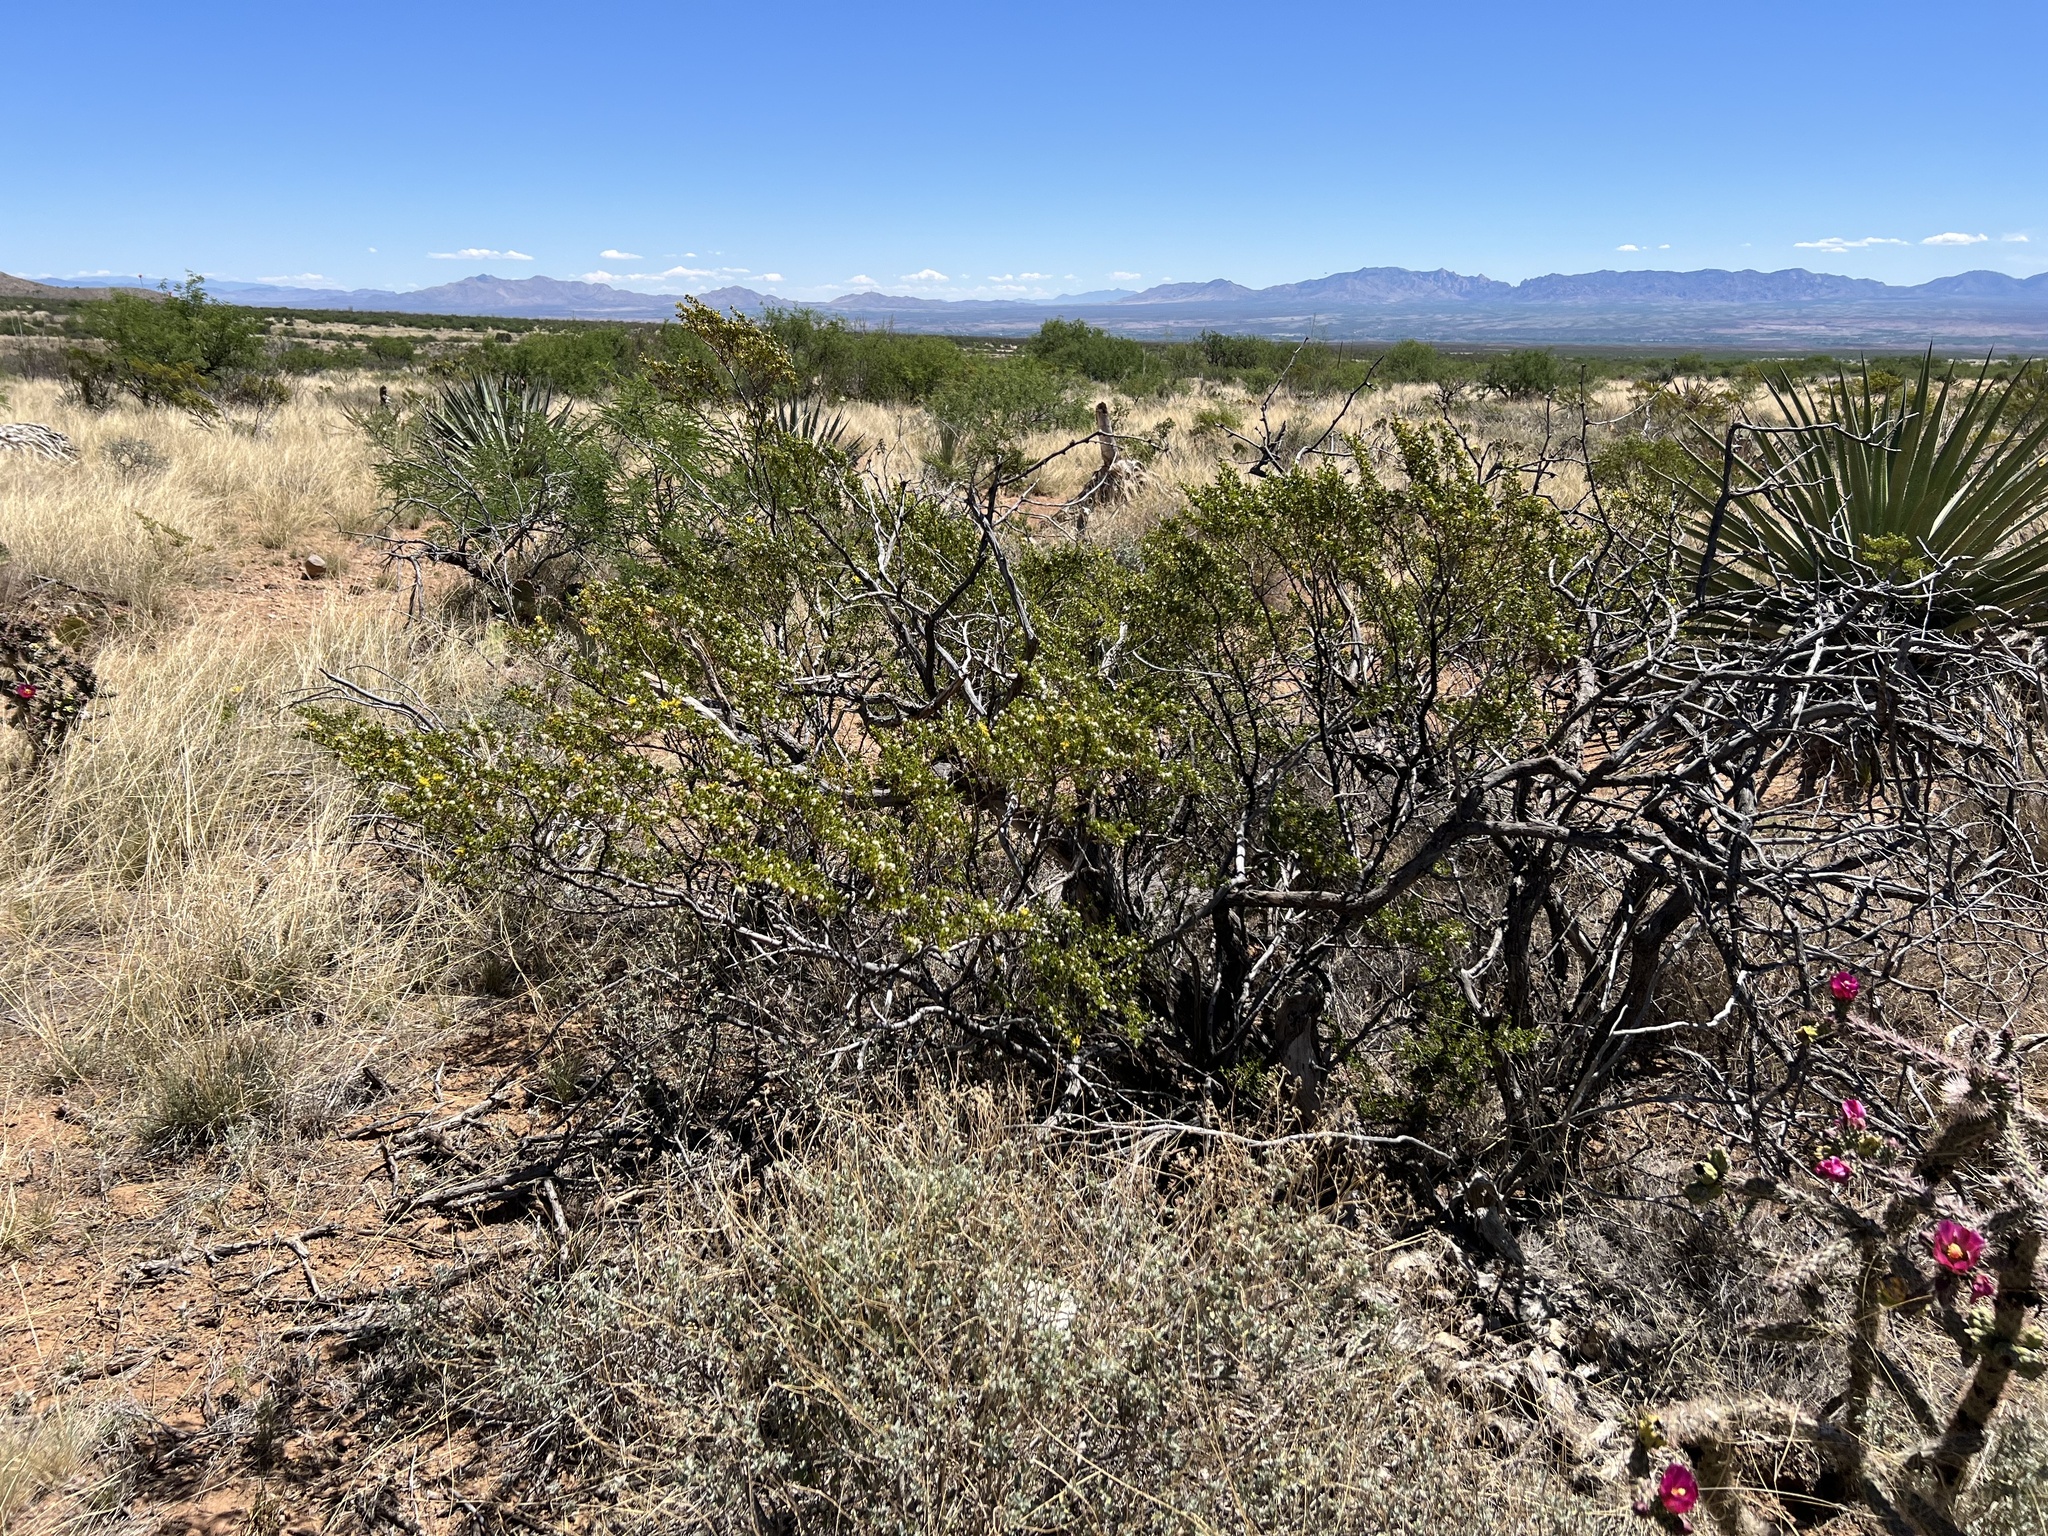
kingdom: Plantae
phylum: Tracheophyta
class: Magnoliopsida
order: Zygophyllales
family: Zygophyllaceae
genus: Larrea
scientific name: Larrea tridentata
